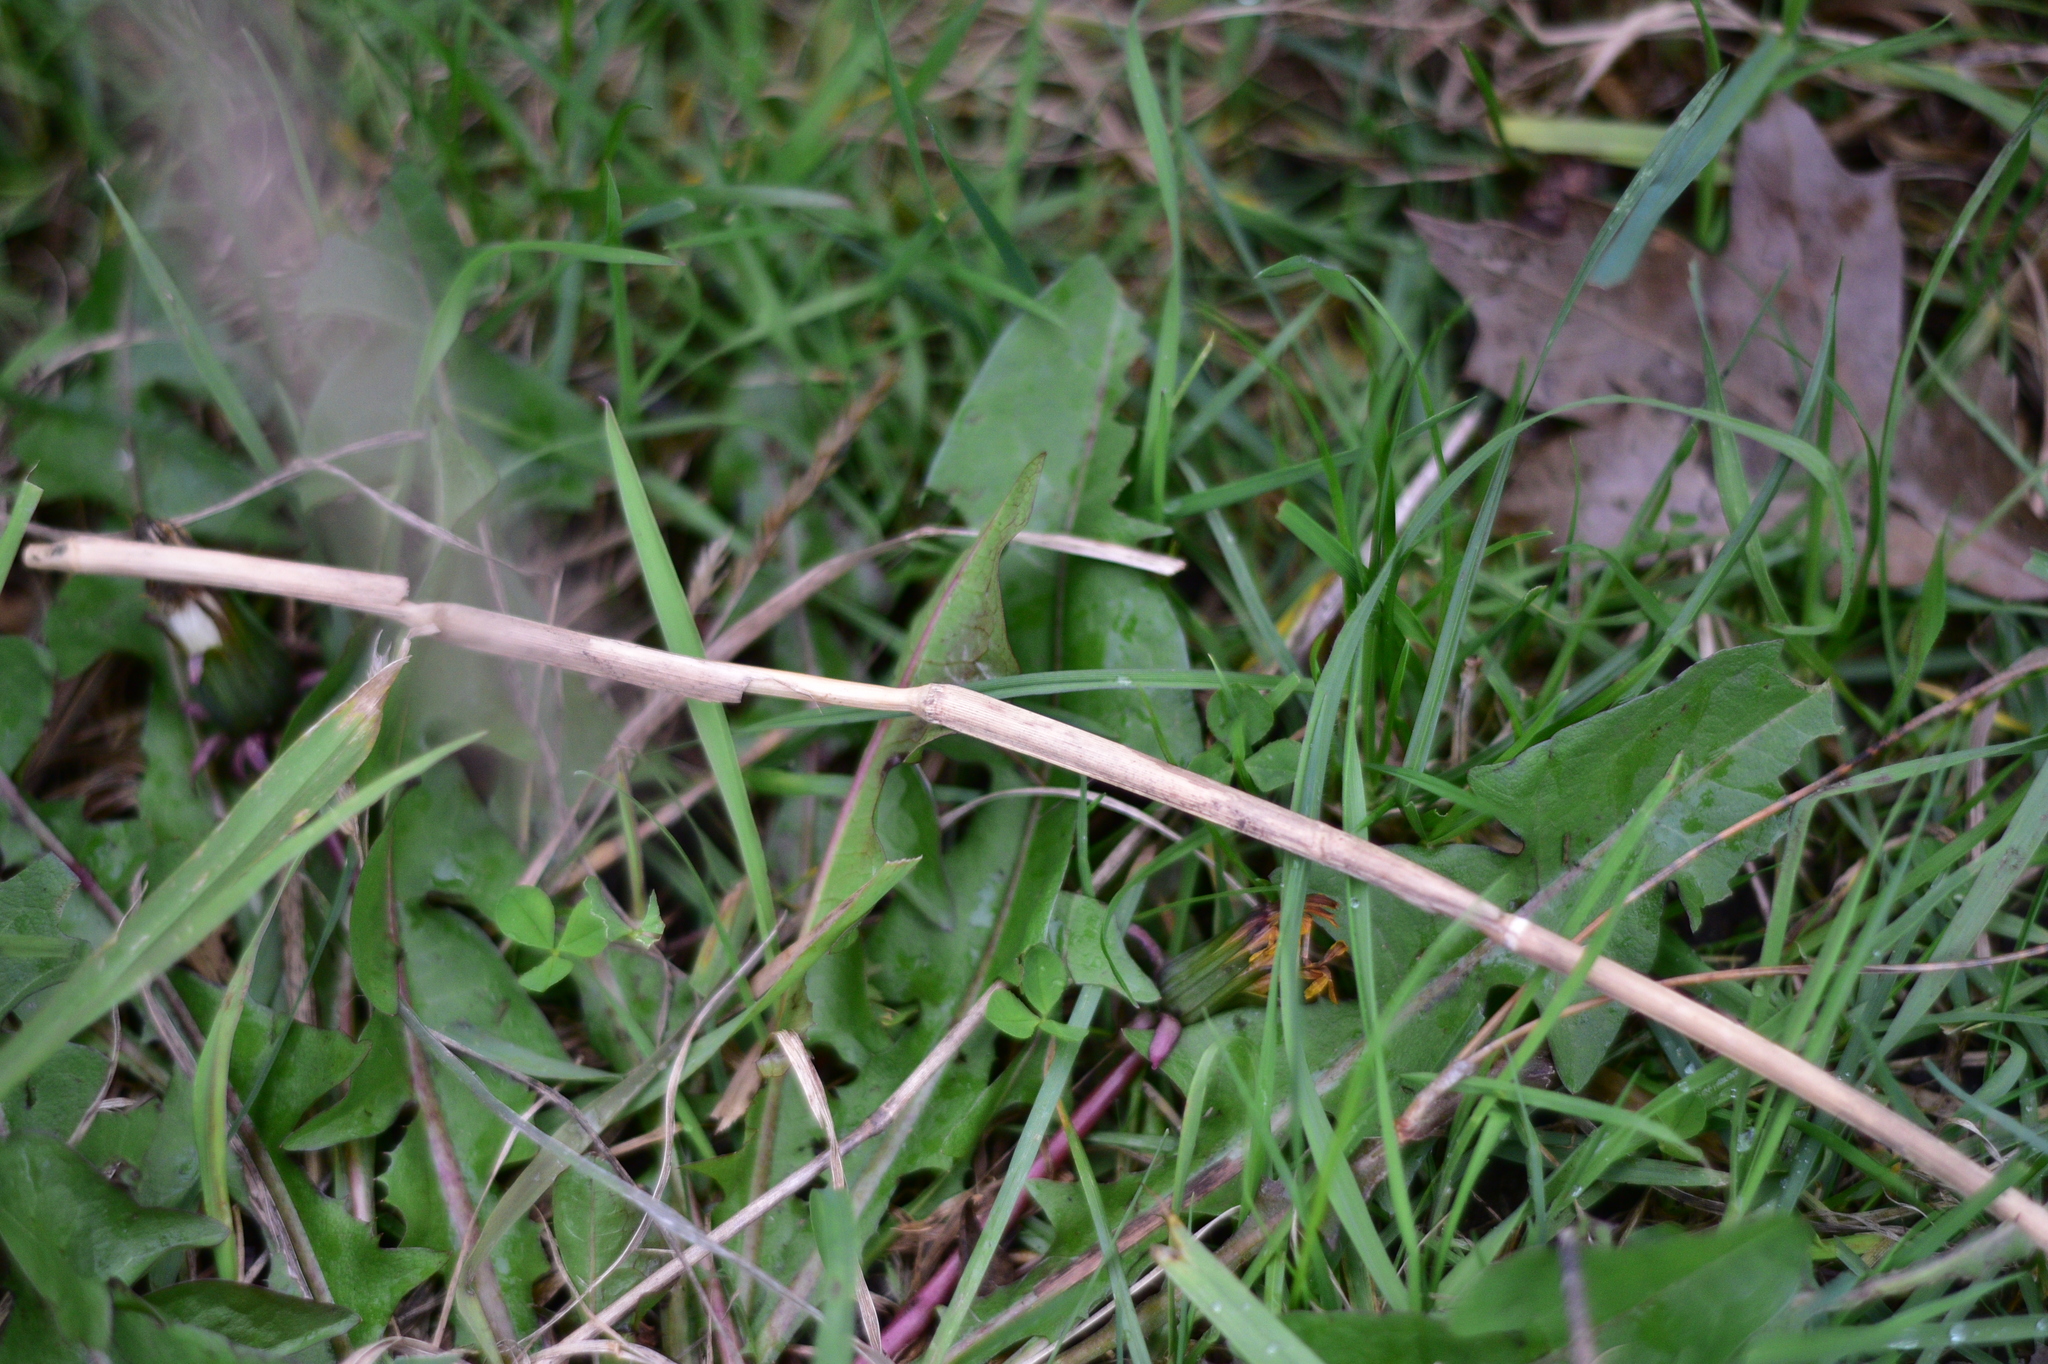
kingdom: Plantae
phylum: Tracheophyta
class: Magnoliopsida
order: Asterales
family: Asteraceae
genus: Taraxacum
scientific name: Taraxacum
